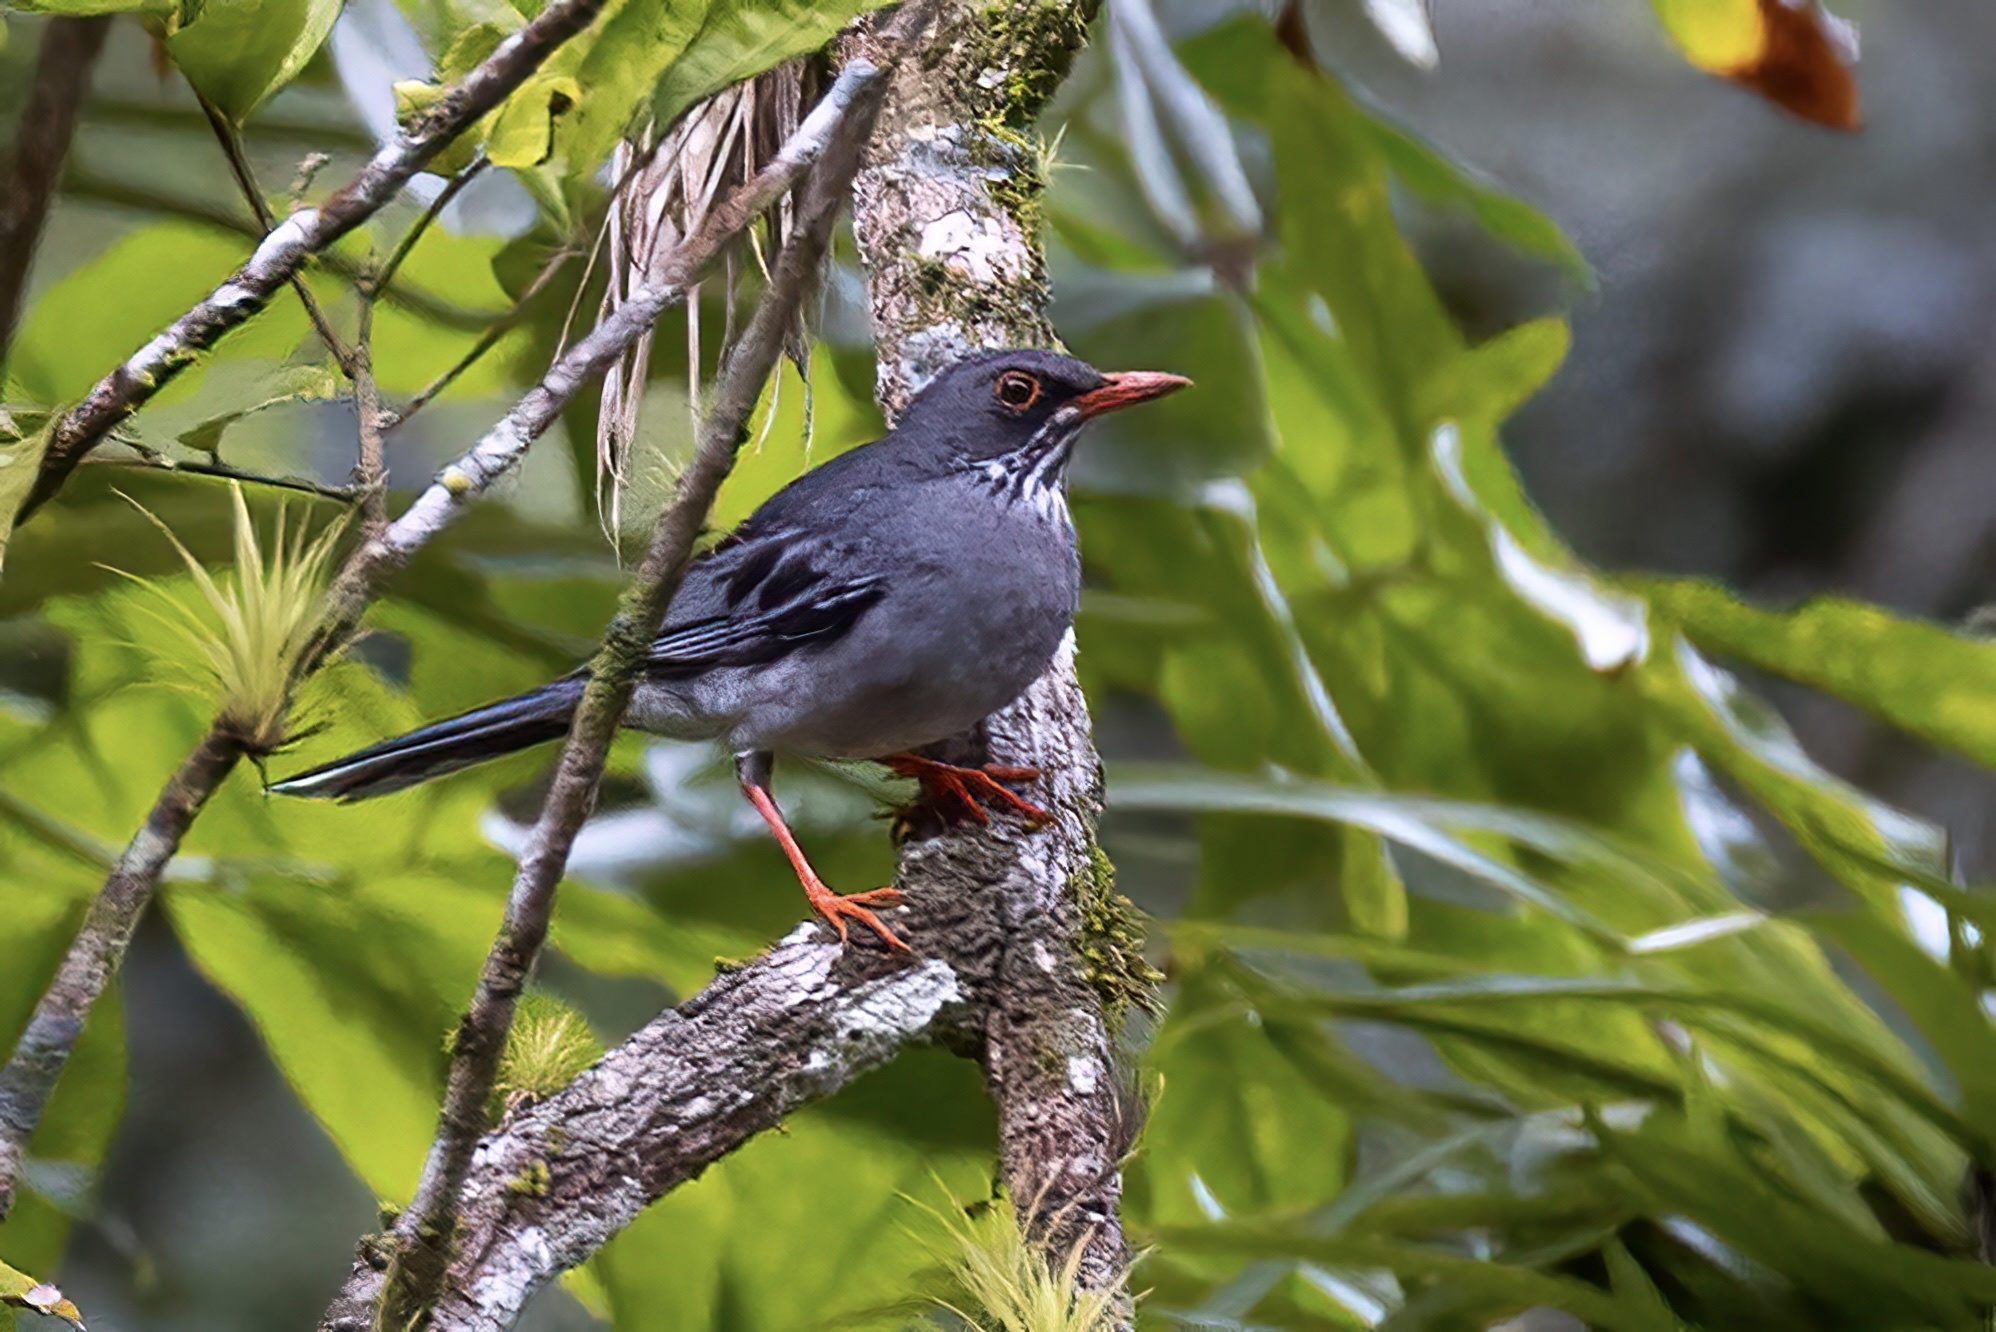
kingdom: Animalia
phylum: Chordata
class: Aves
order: Passeriformes
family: Turdidae
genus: Turdus
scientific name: Turdus plumbeus
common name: Red-legged thrush
